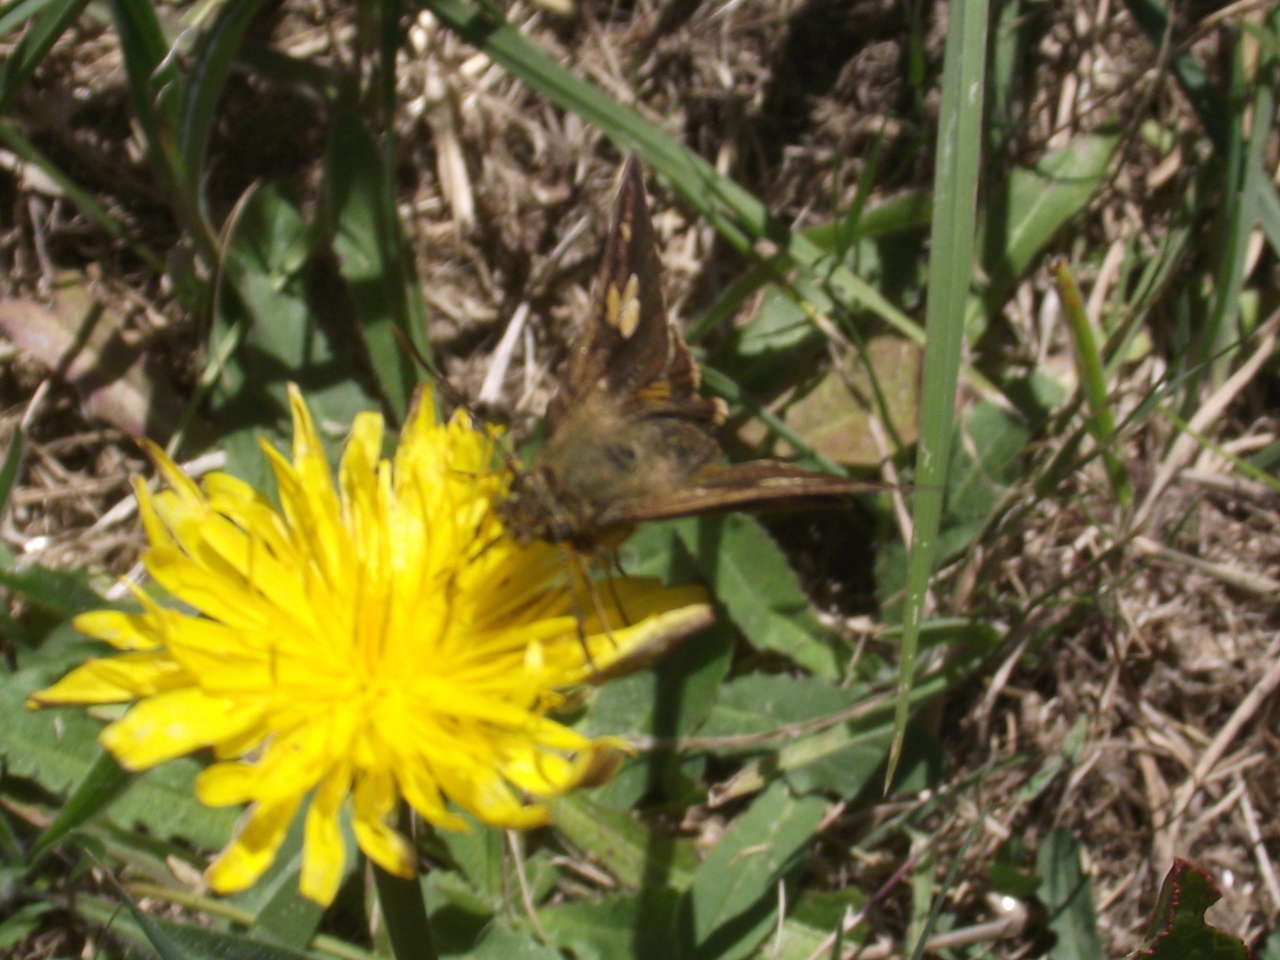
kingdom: Animalia
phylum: Arthropoda
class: Insecta
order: Lepidoptera
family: Hesperiidae
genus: Toxidia
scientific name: Toxidia
